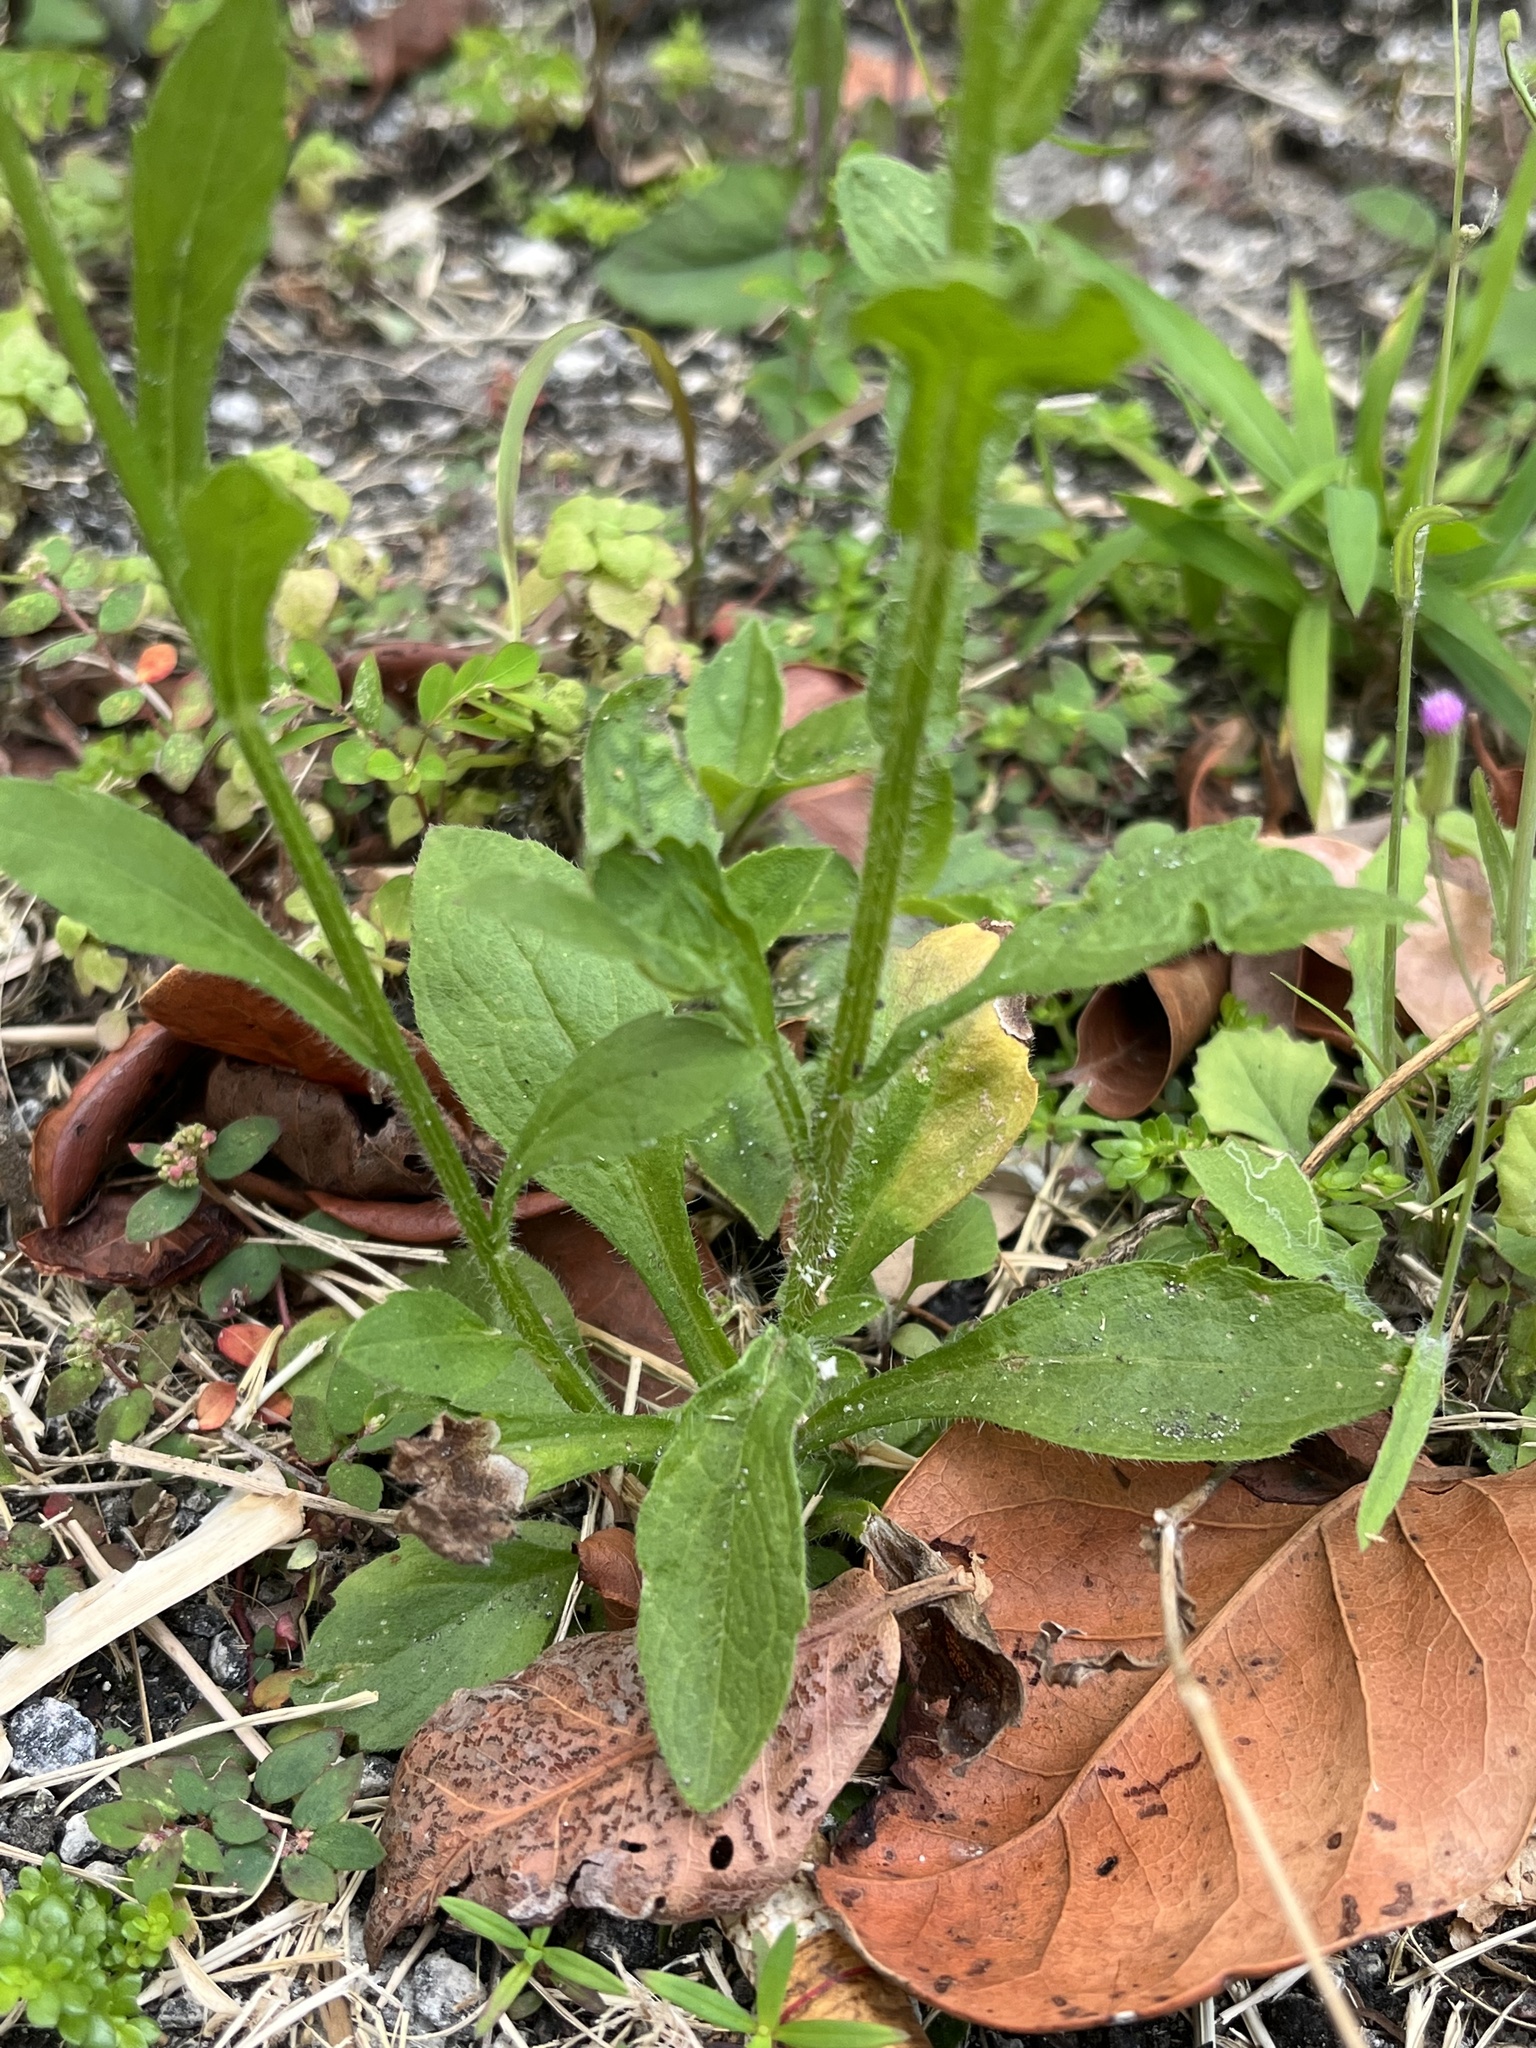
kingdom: Plantae
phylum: Tracheophyta
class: Magnoliopsida
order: Asterales
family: Asteraceae
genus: Erigeron
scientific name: Erigeron canadensis
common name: Canadian fleabane
